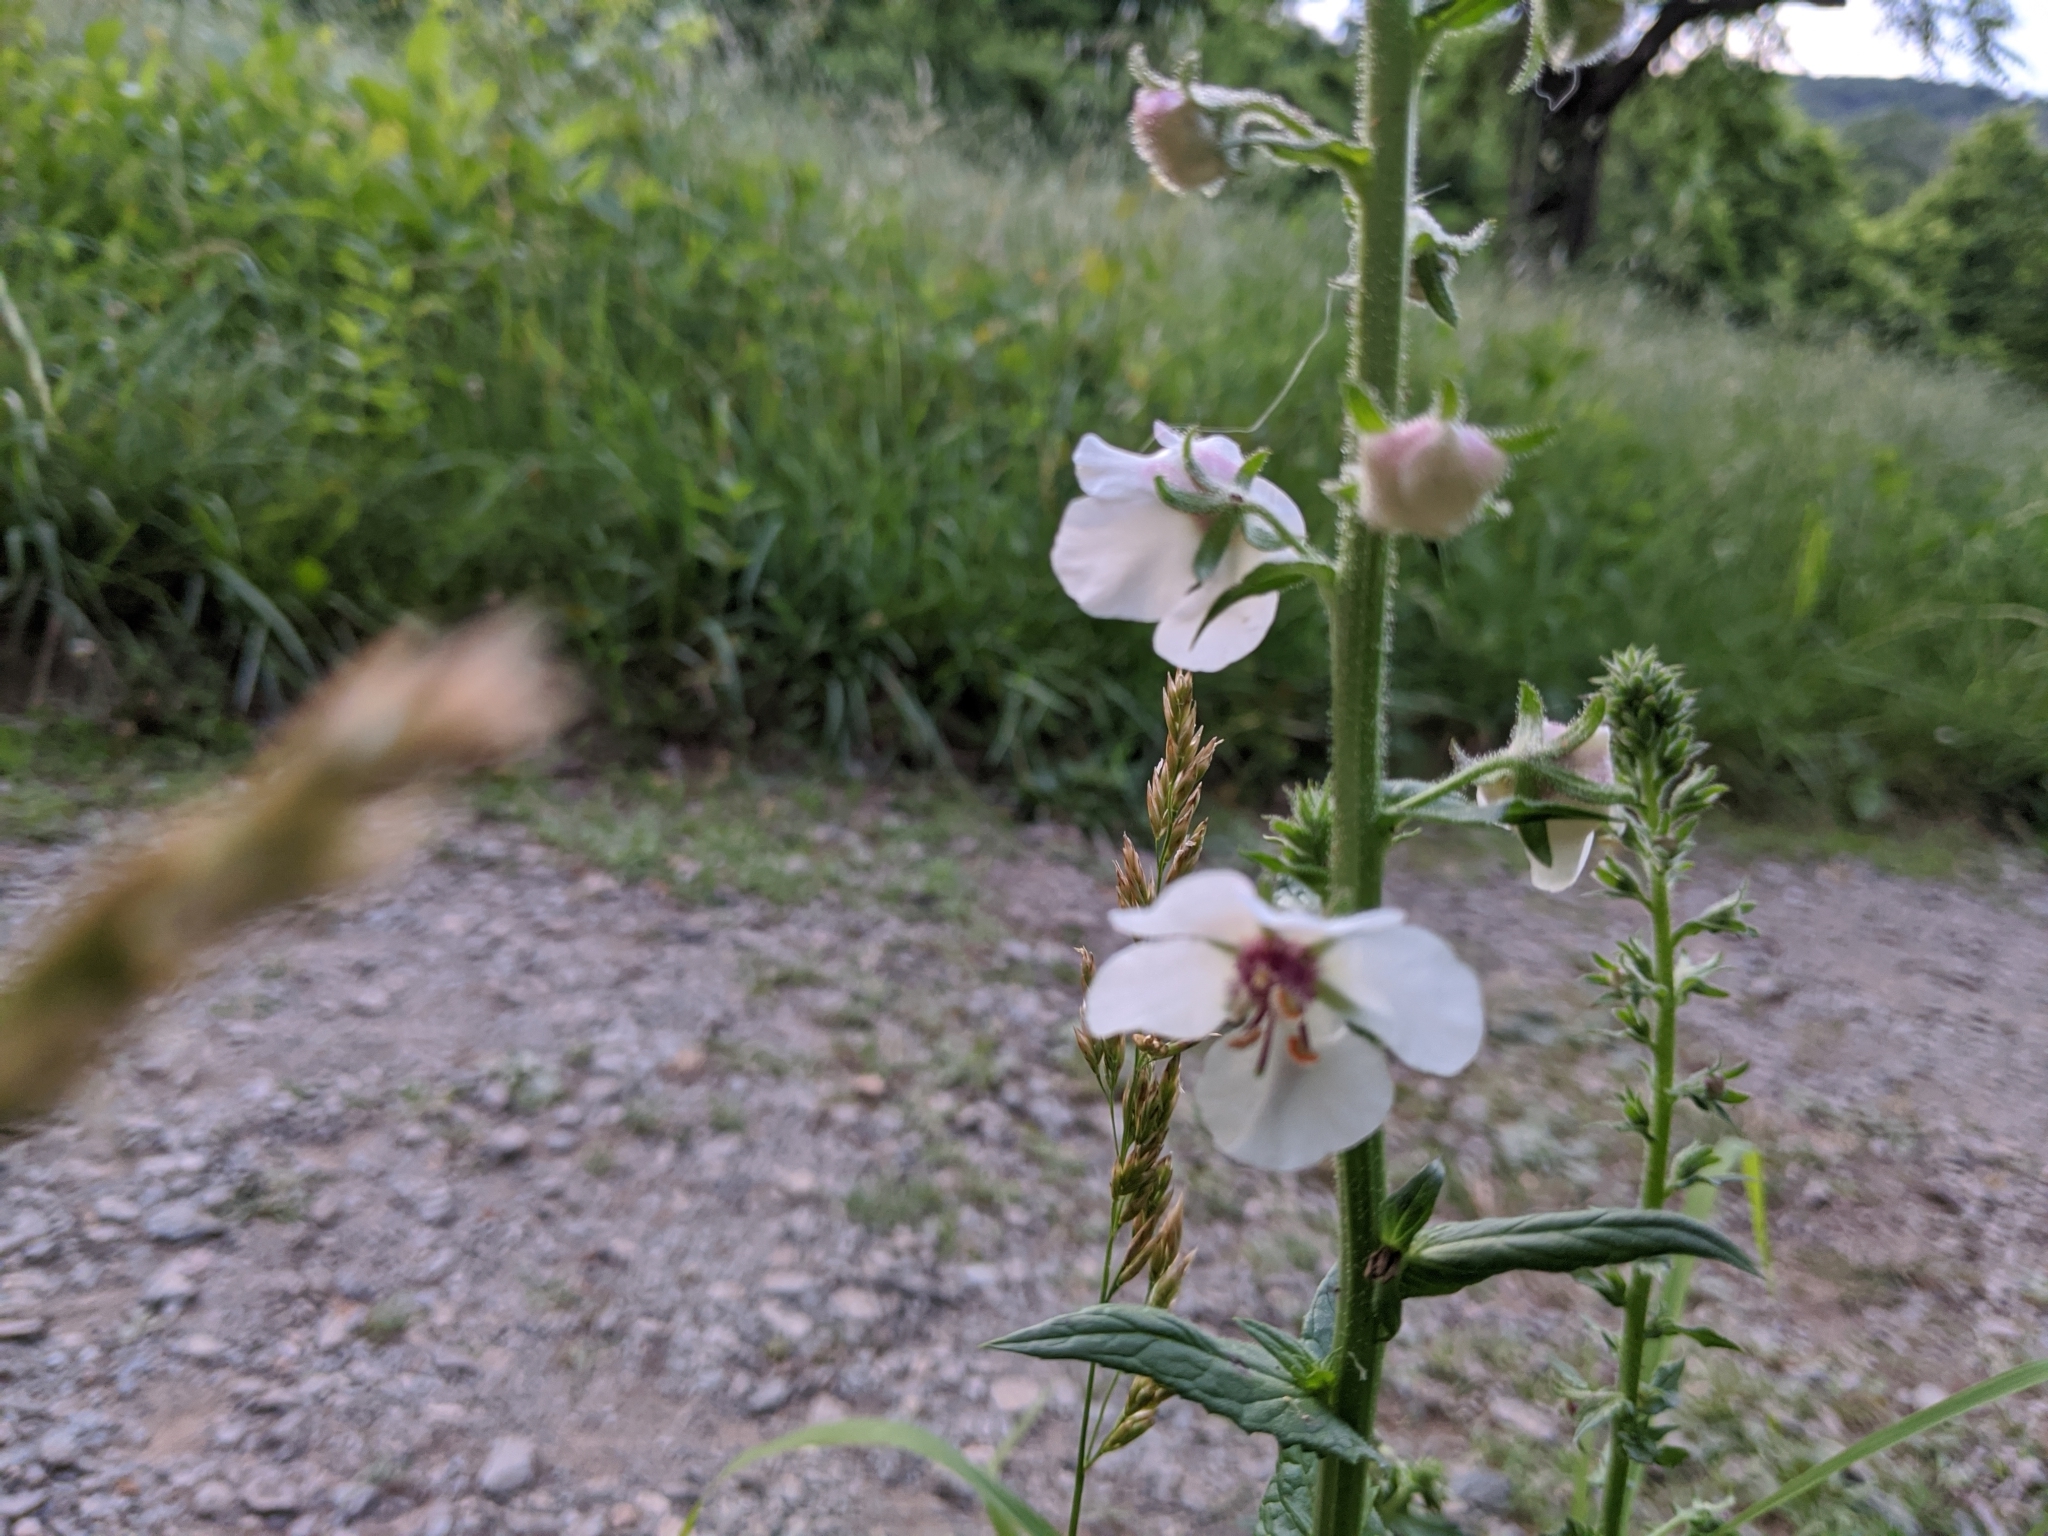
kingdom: Plantae
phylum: Tracheophyta
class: Magnoliopsida
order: Lamiales
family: Scrophulariaceae
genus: Verbascum
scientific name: Verbascum blattaria
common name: Moth mullein
